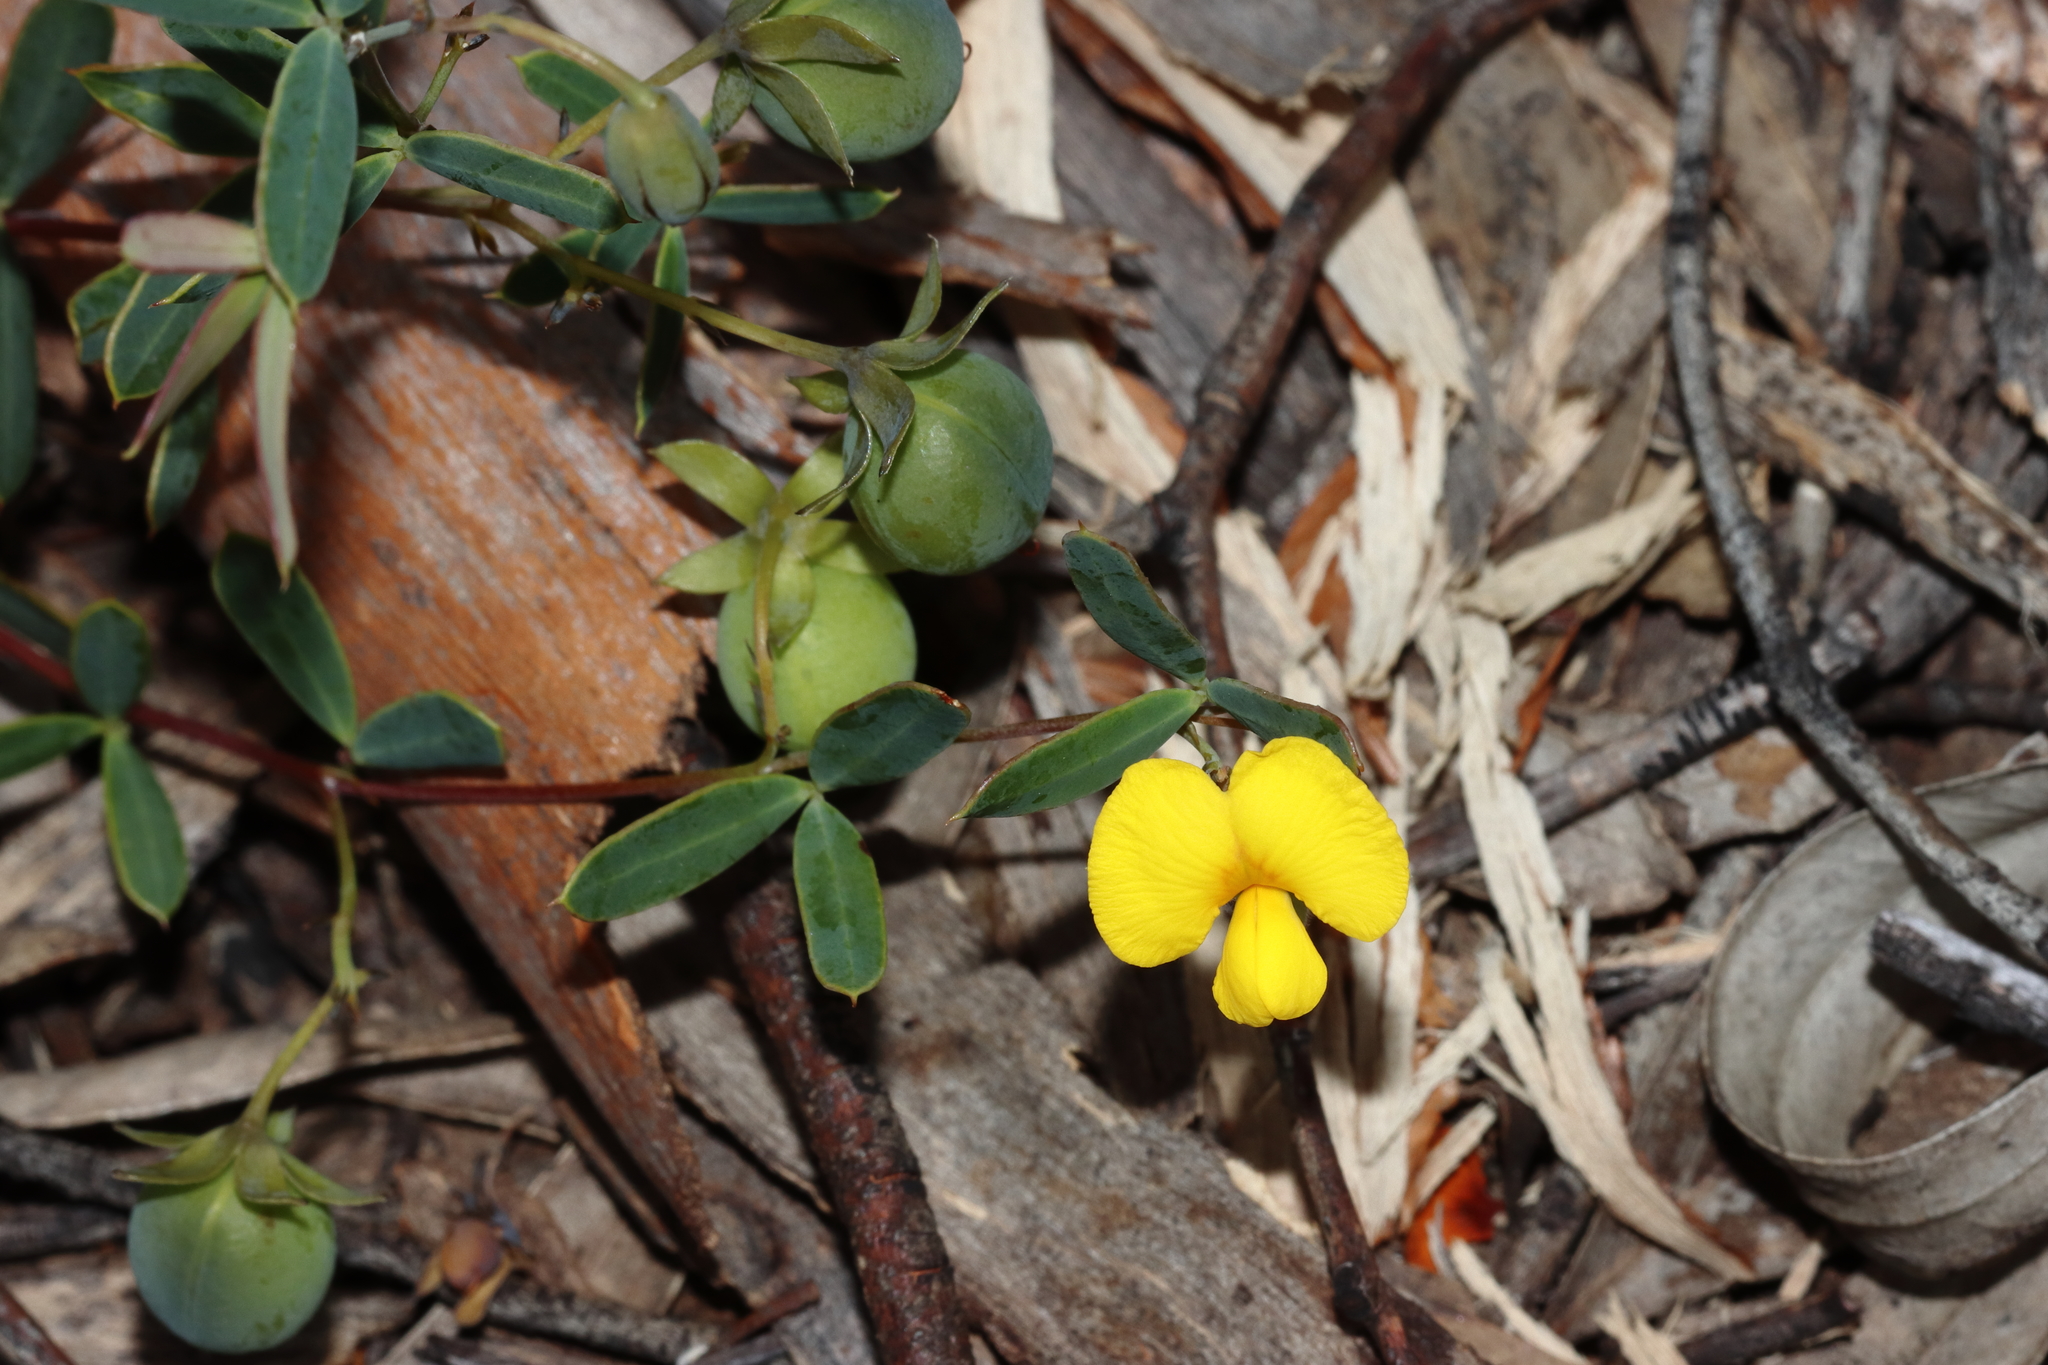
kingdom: Plantae
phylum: Tracheophyta
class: Magnoliopsida
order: Fabales
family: Fabaceae
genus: Gompholobium
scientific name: Gompholobium marginatum
